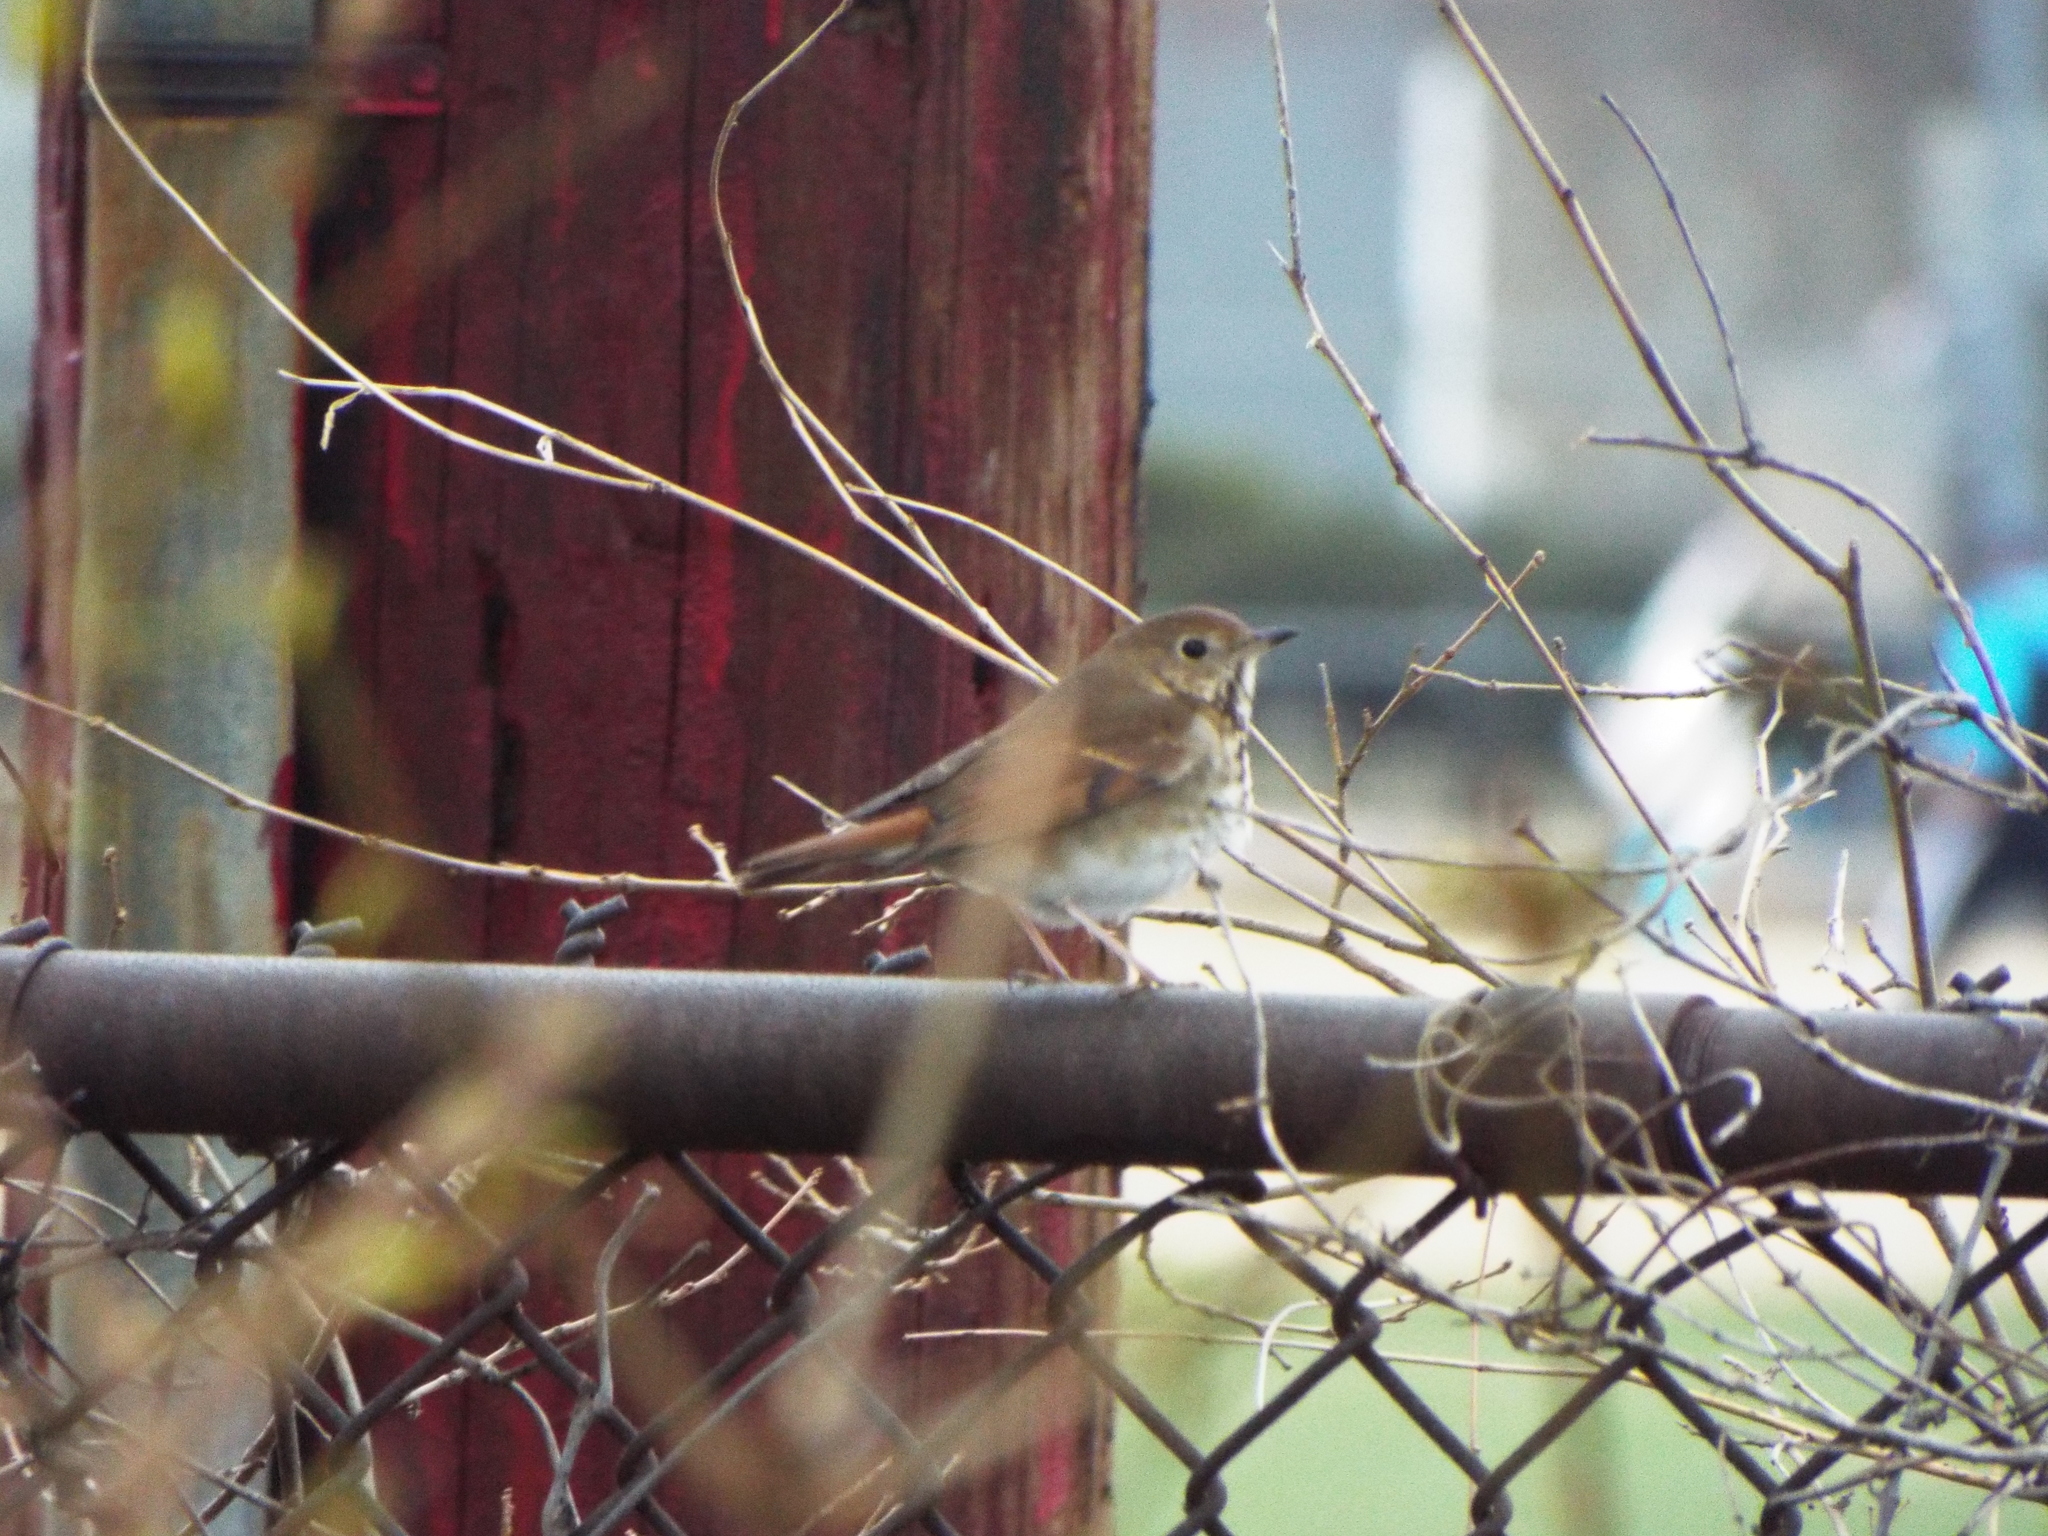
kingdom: Animalia
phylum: Chordata
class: Aves
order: Passeriformes
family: Turdidae
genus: Catharus
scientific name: Catharus guttatus
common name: Hermit thrush
